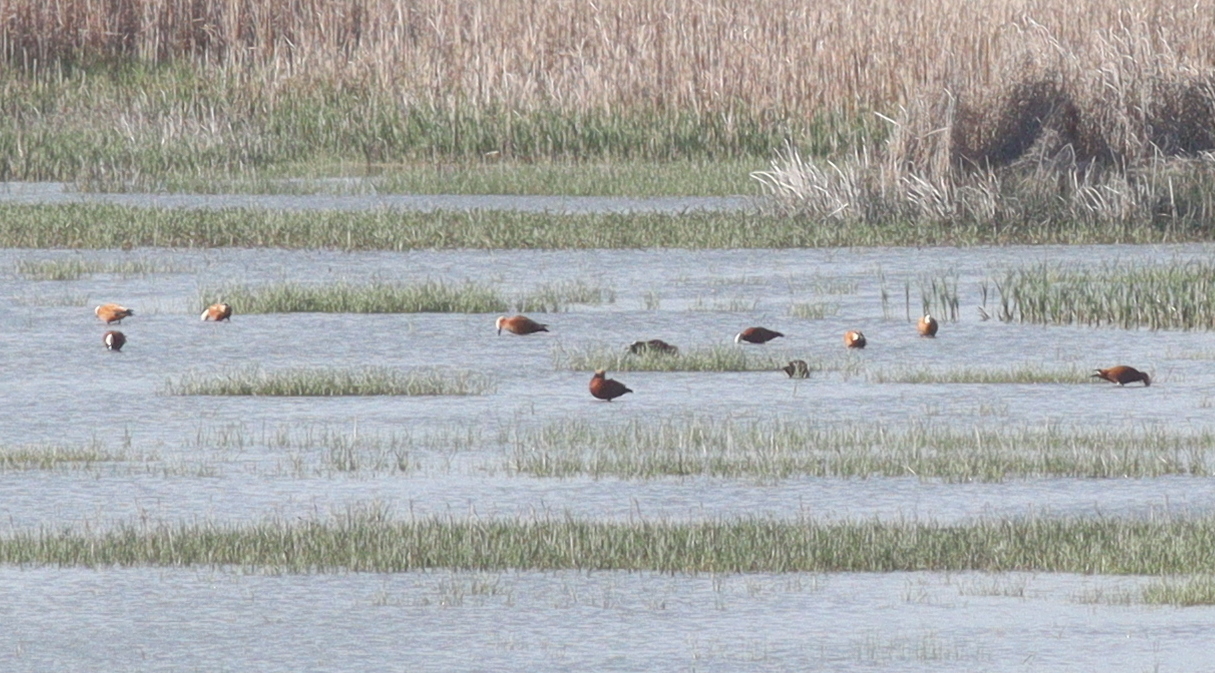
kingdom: Animalia
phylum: Chordata
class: Aves
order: Anseriformes
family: Anatidae
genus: Tadorna
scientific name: Tadorna ferruginea
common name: Ruddy shelduck
